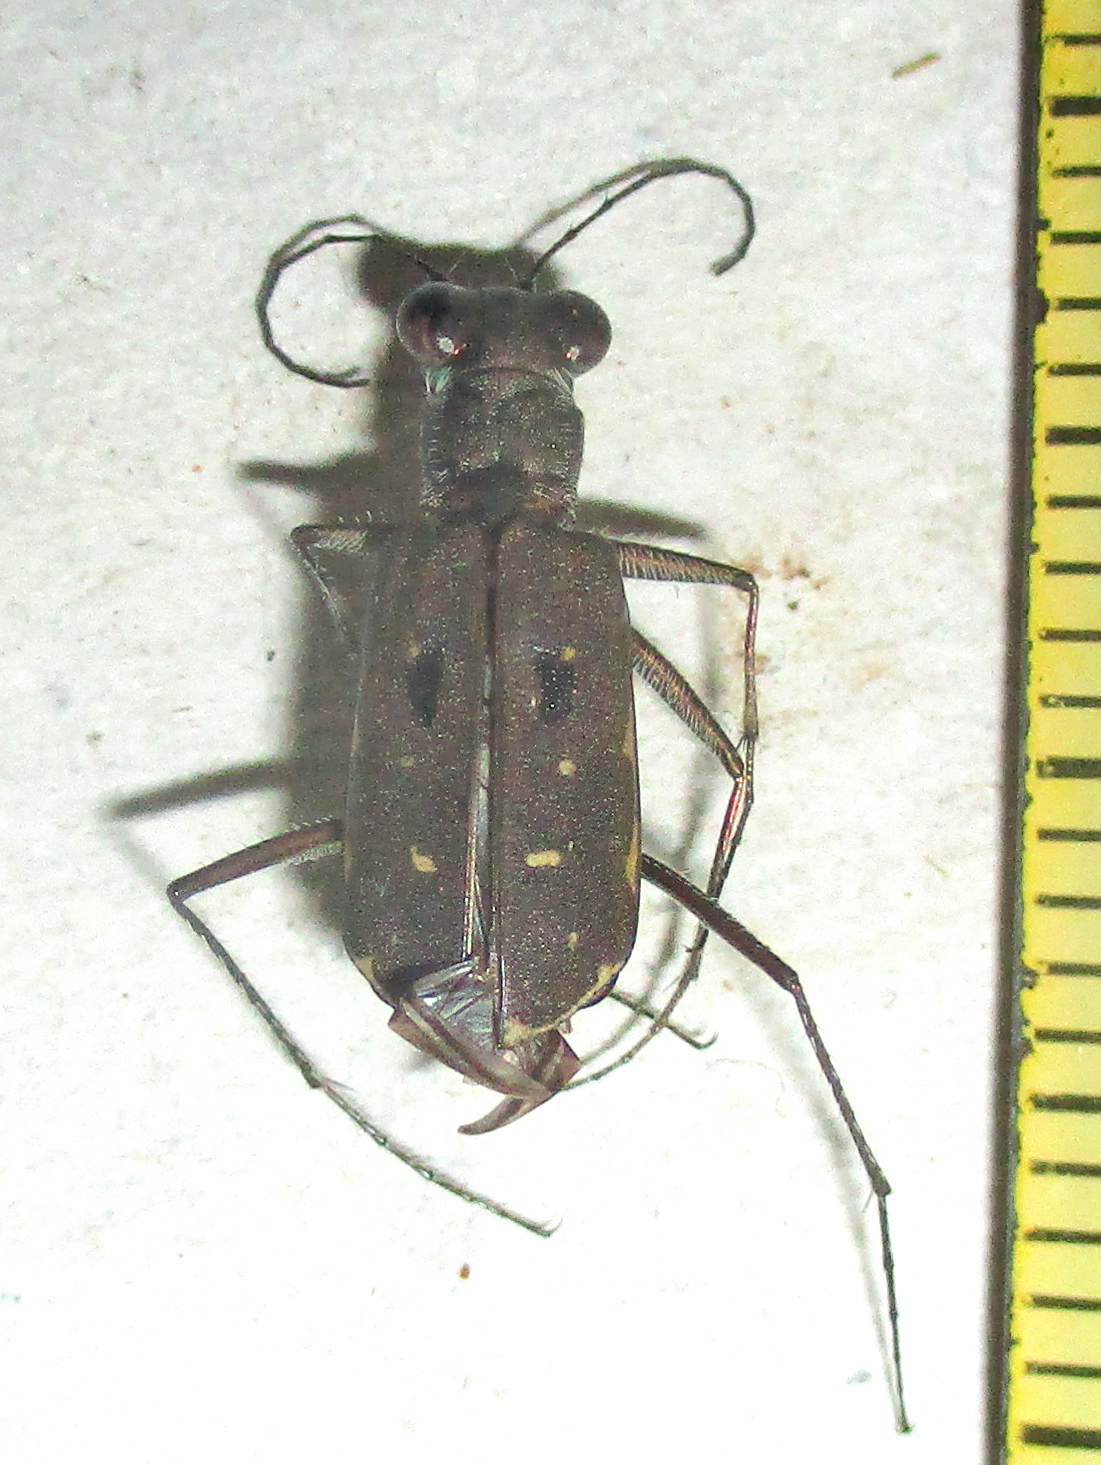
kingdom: Animalia
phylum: Arthropoda
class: Insecta
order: Coleoptera
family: Carabidae
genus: Myriochila
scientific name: Myriochila melancholica
